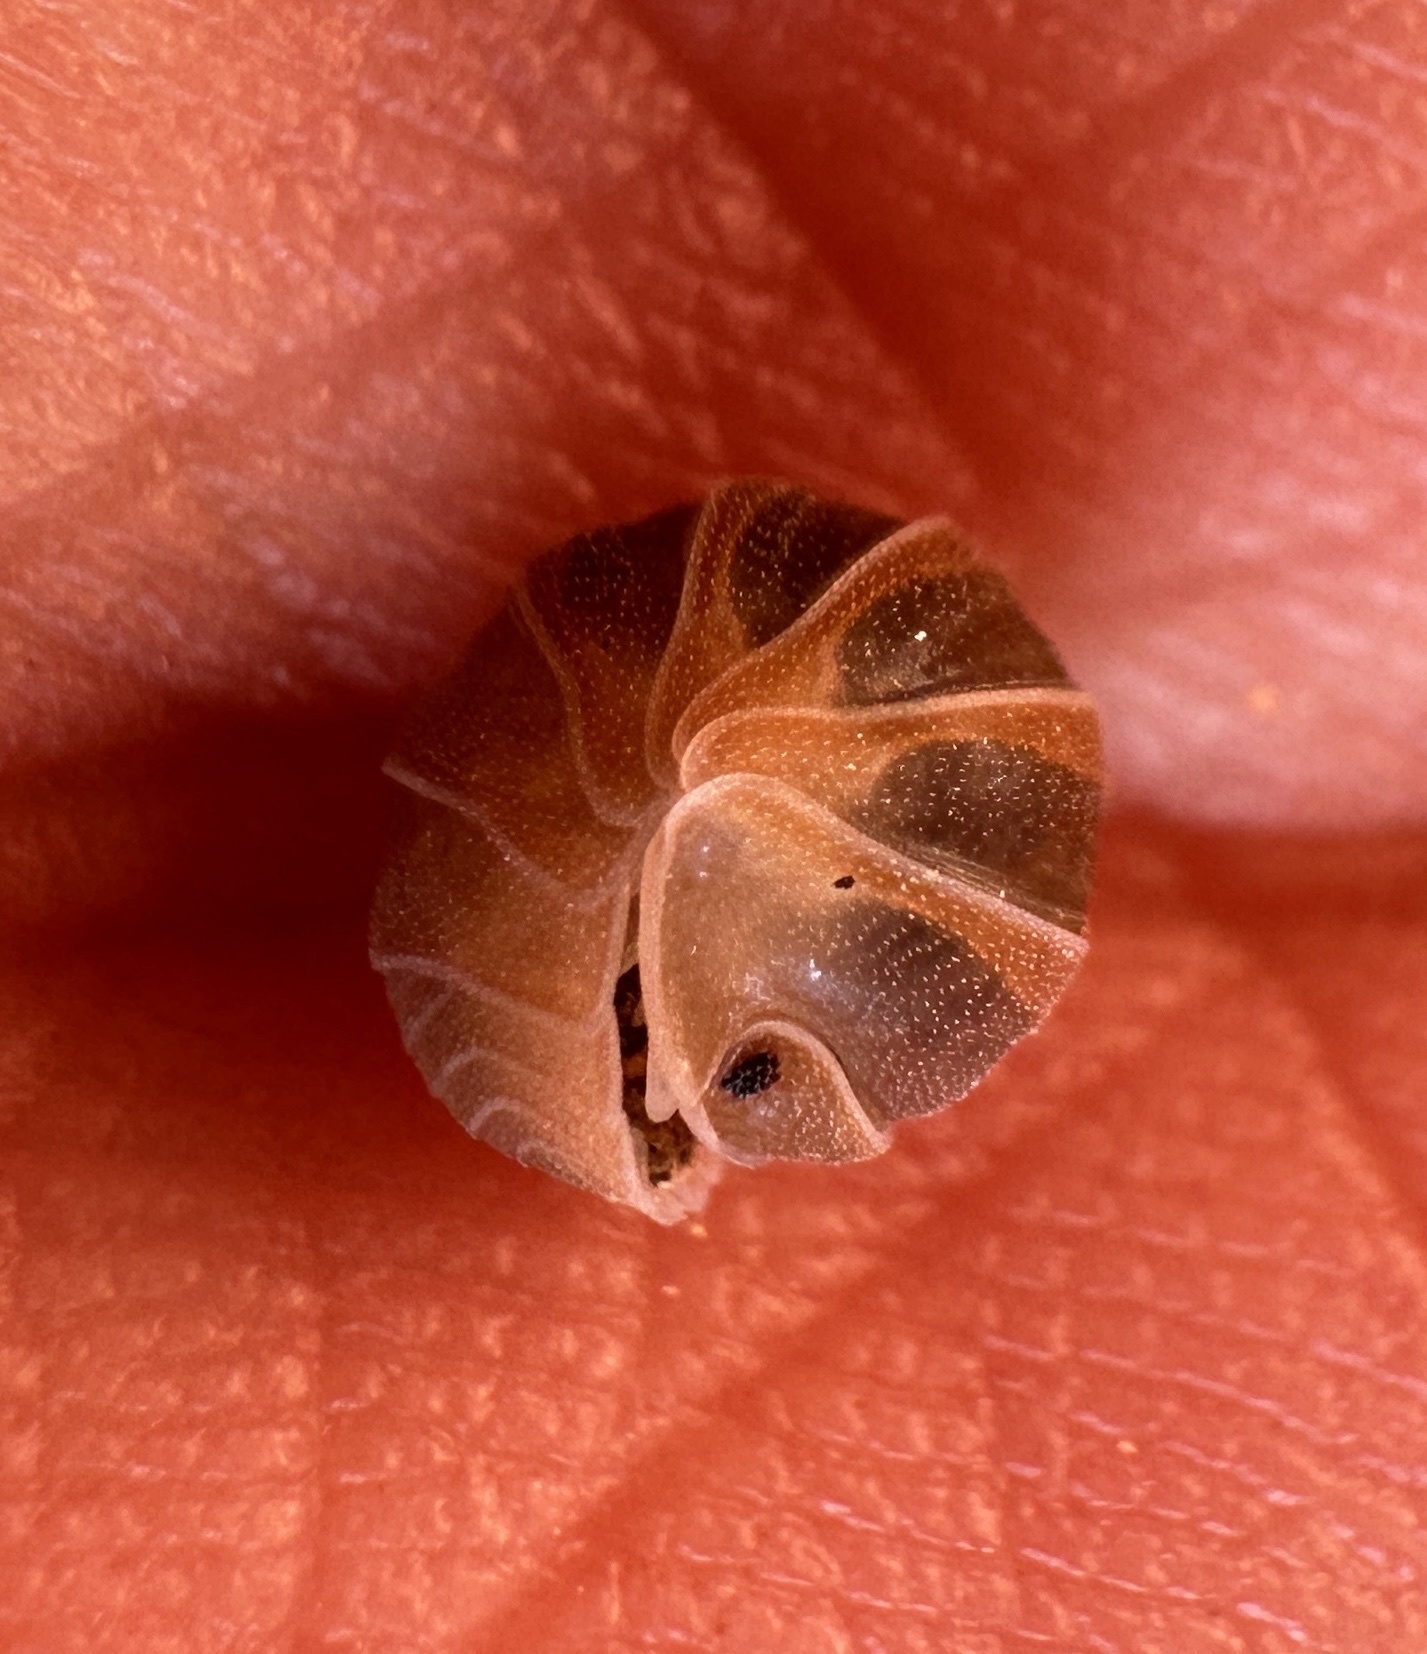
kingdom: Animalia
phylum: Arthropoda
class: Malacostraca
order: Isopoda
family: Armadillidae
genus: Venezillo
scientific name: Venezillo arizonicus
